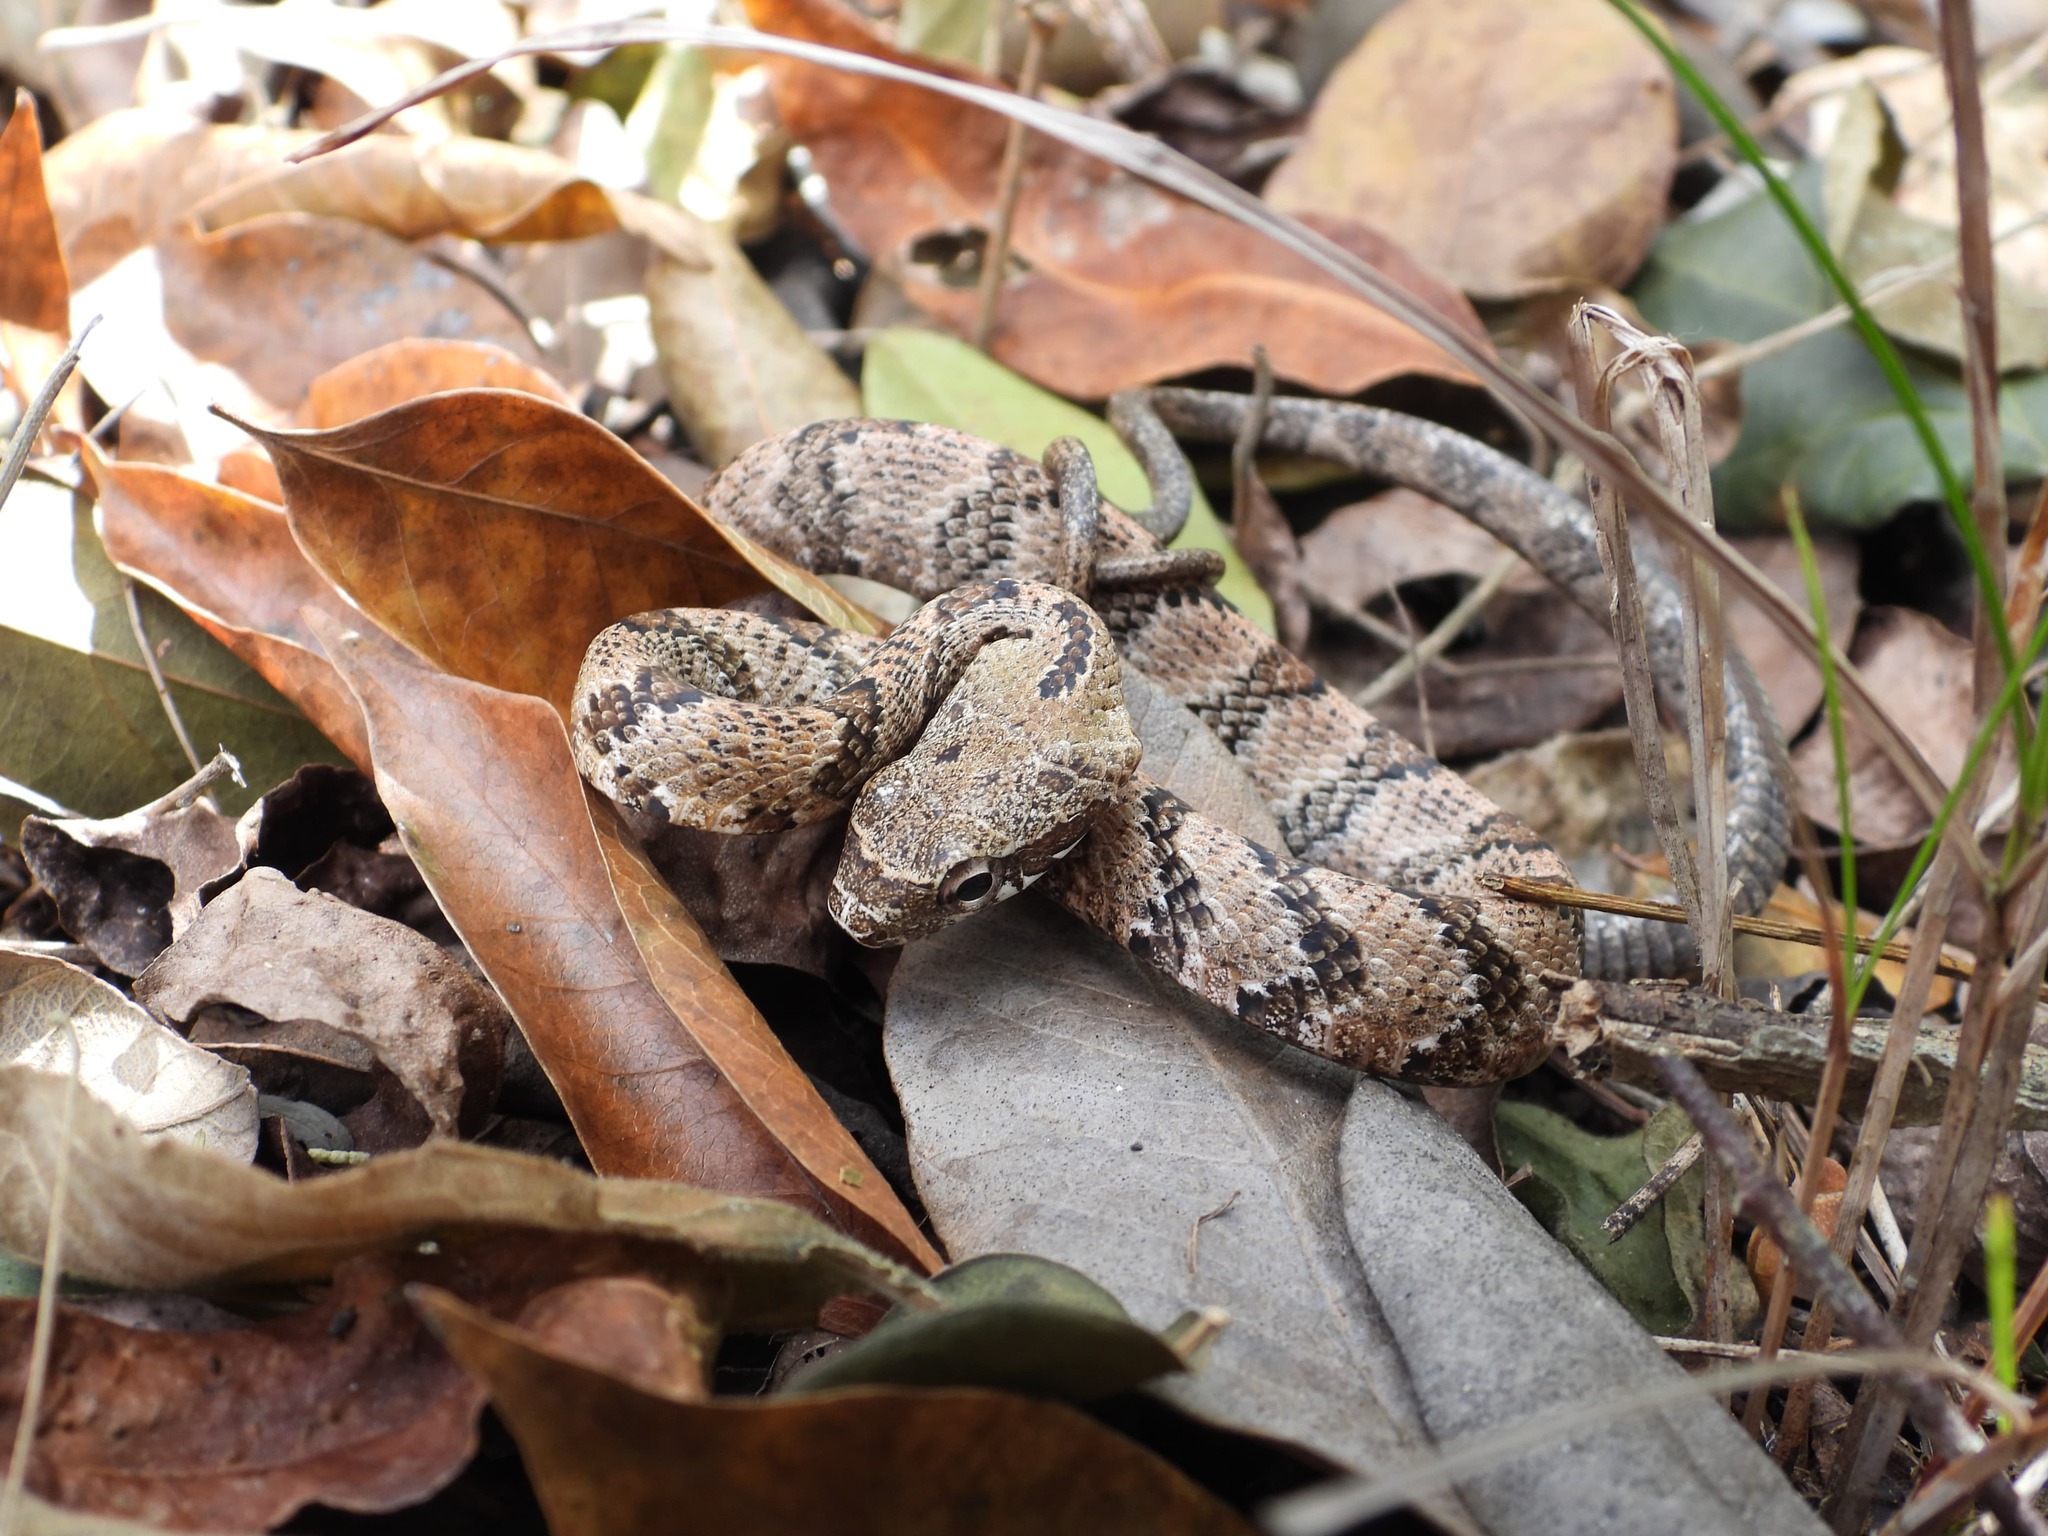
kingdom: Animalia
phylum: Chordata
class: Squamata
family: Colubridae
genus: Phrynonax
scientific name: Phrynonax poecilonotus
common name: Puffing snake
